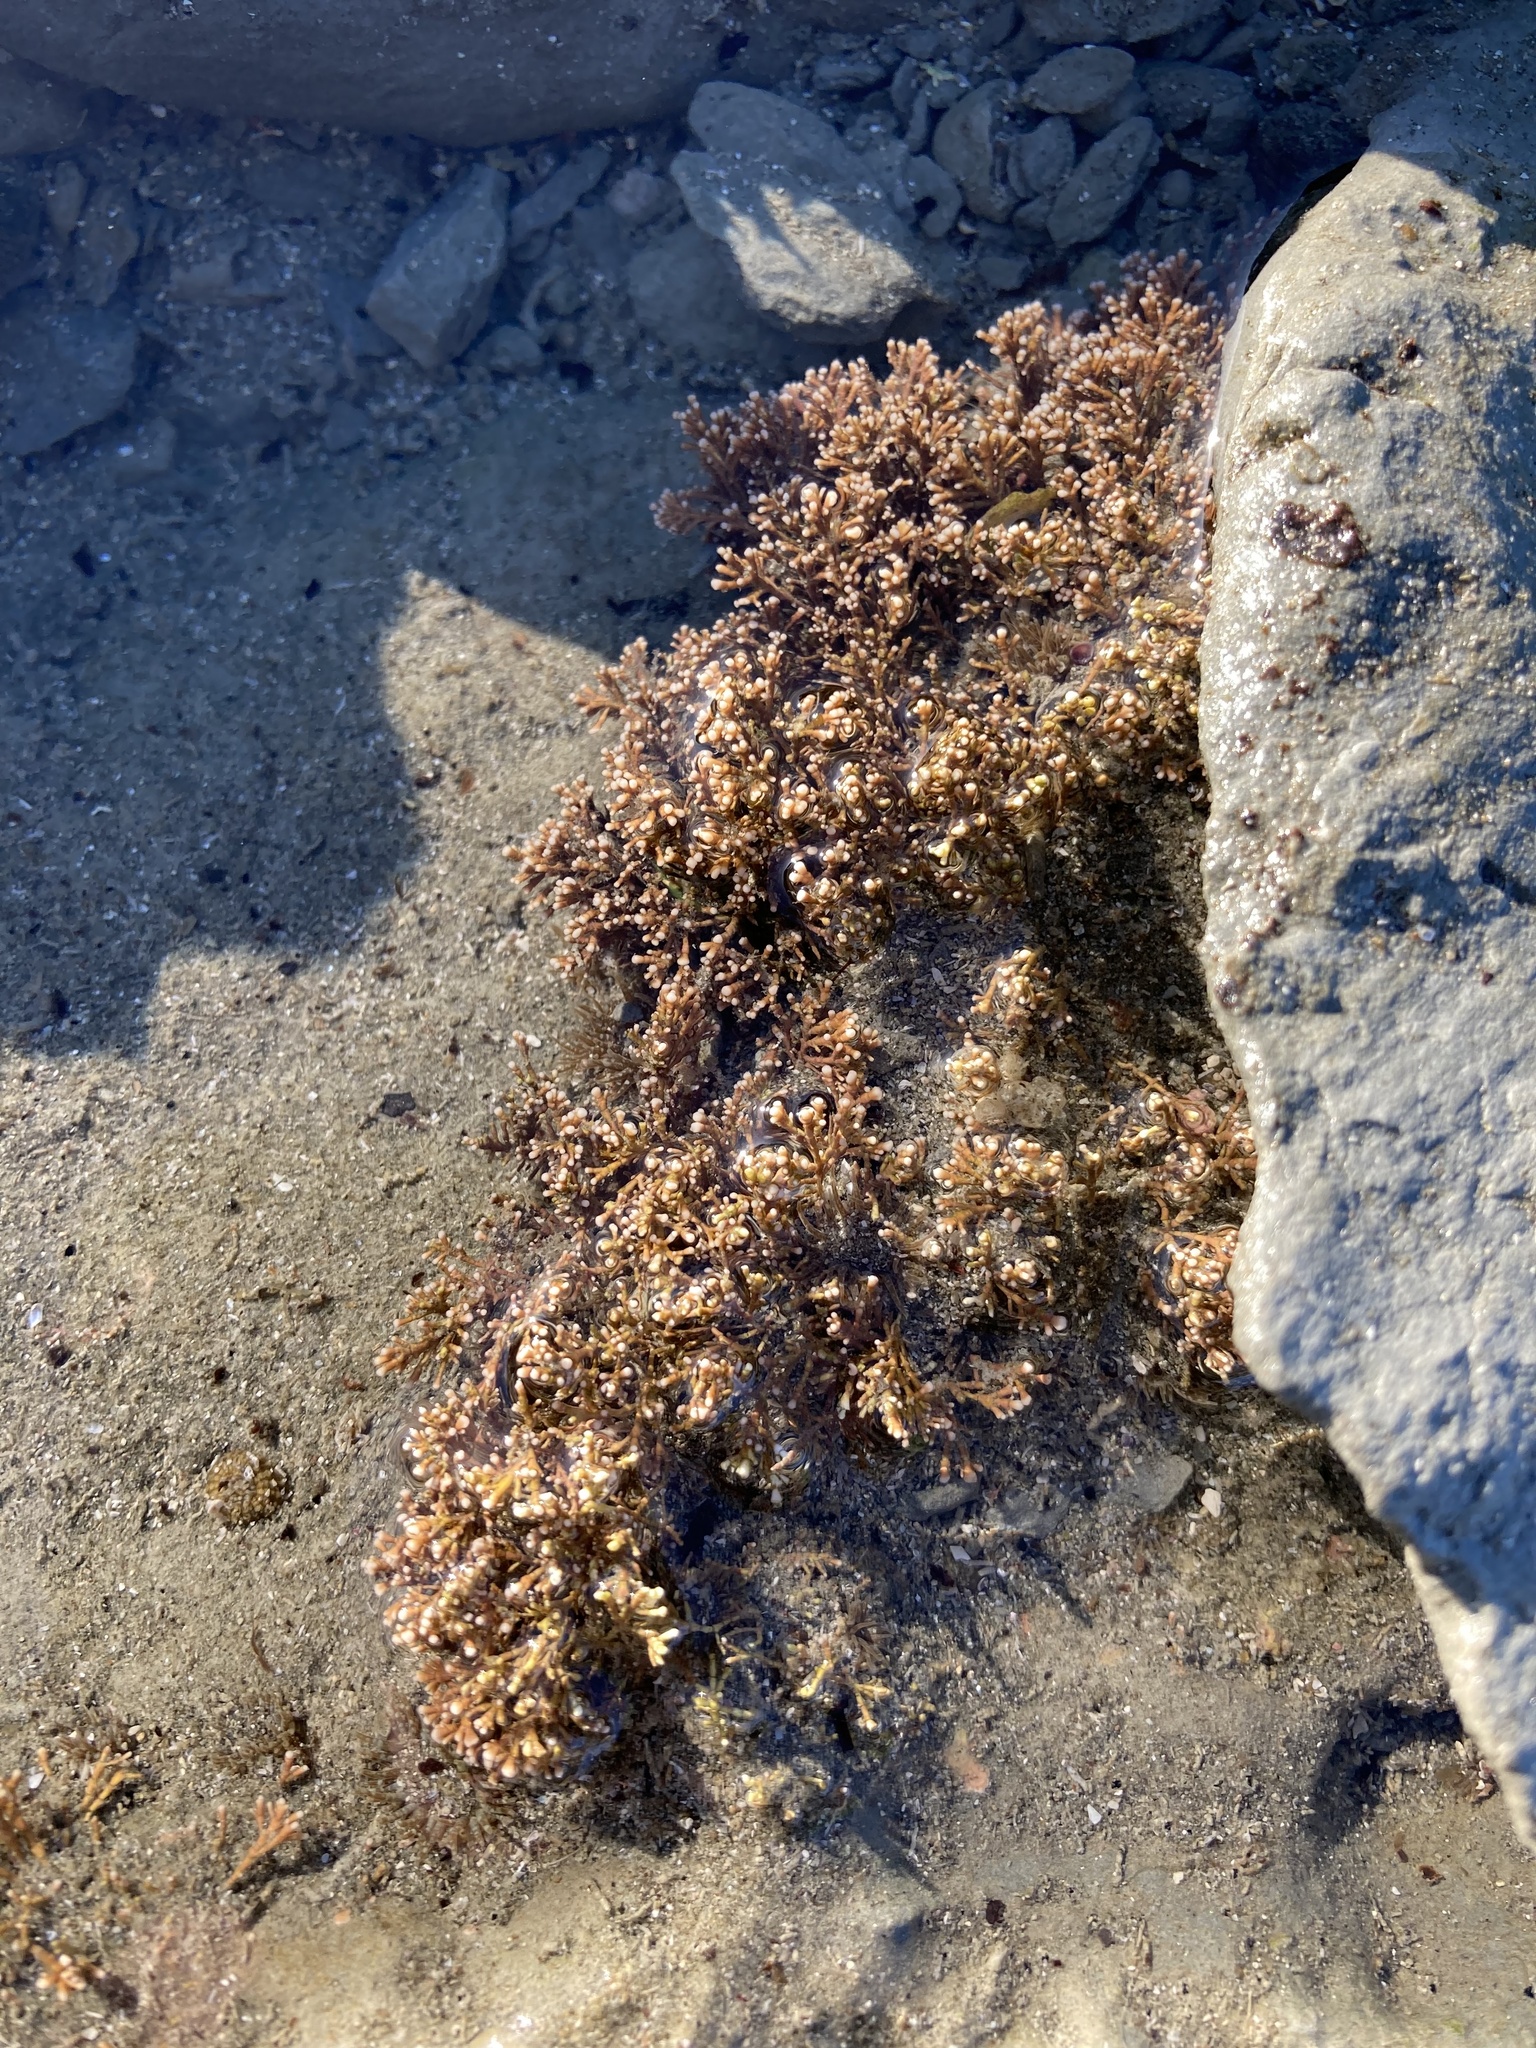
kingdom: Plantae
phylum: Rhodophyta
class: Florideophyceae
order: Corallinales
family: Corallinaceae
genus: Corallina
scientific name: Corallina officinalis
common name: Coral weed
